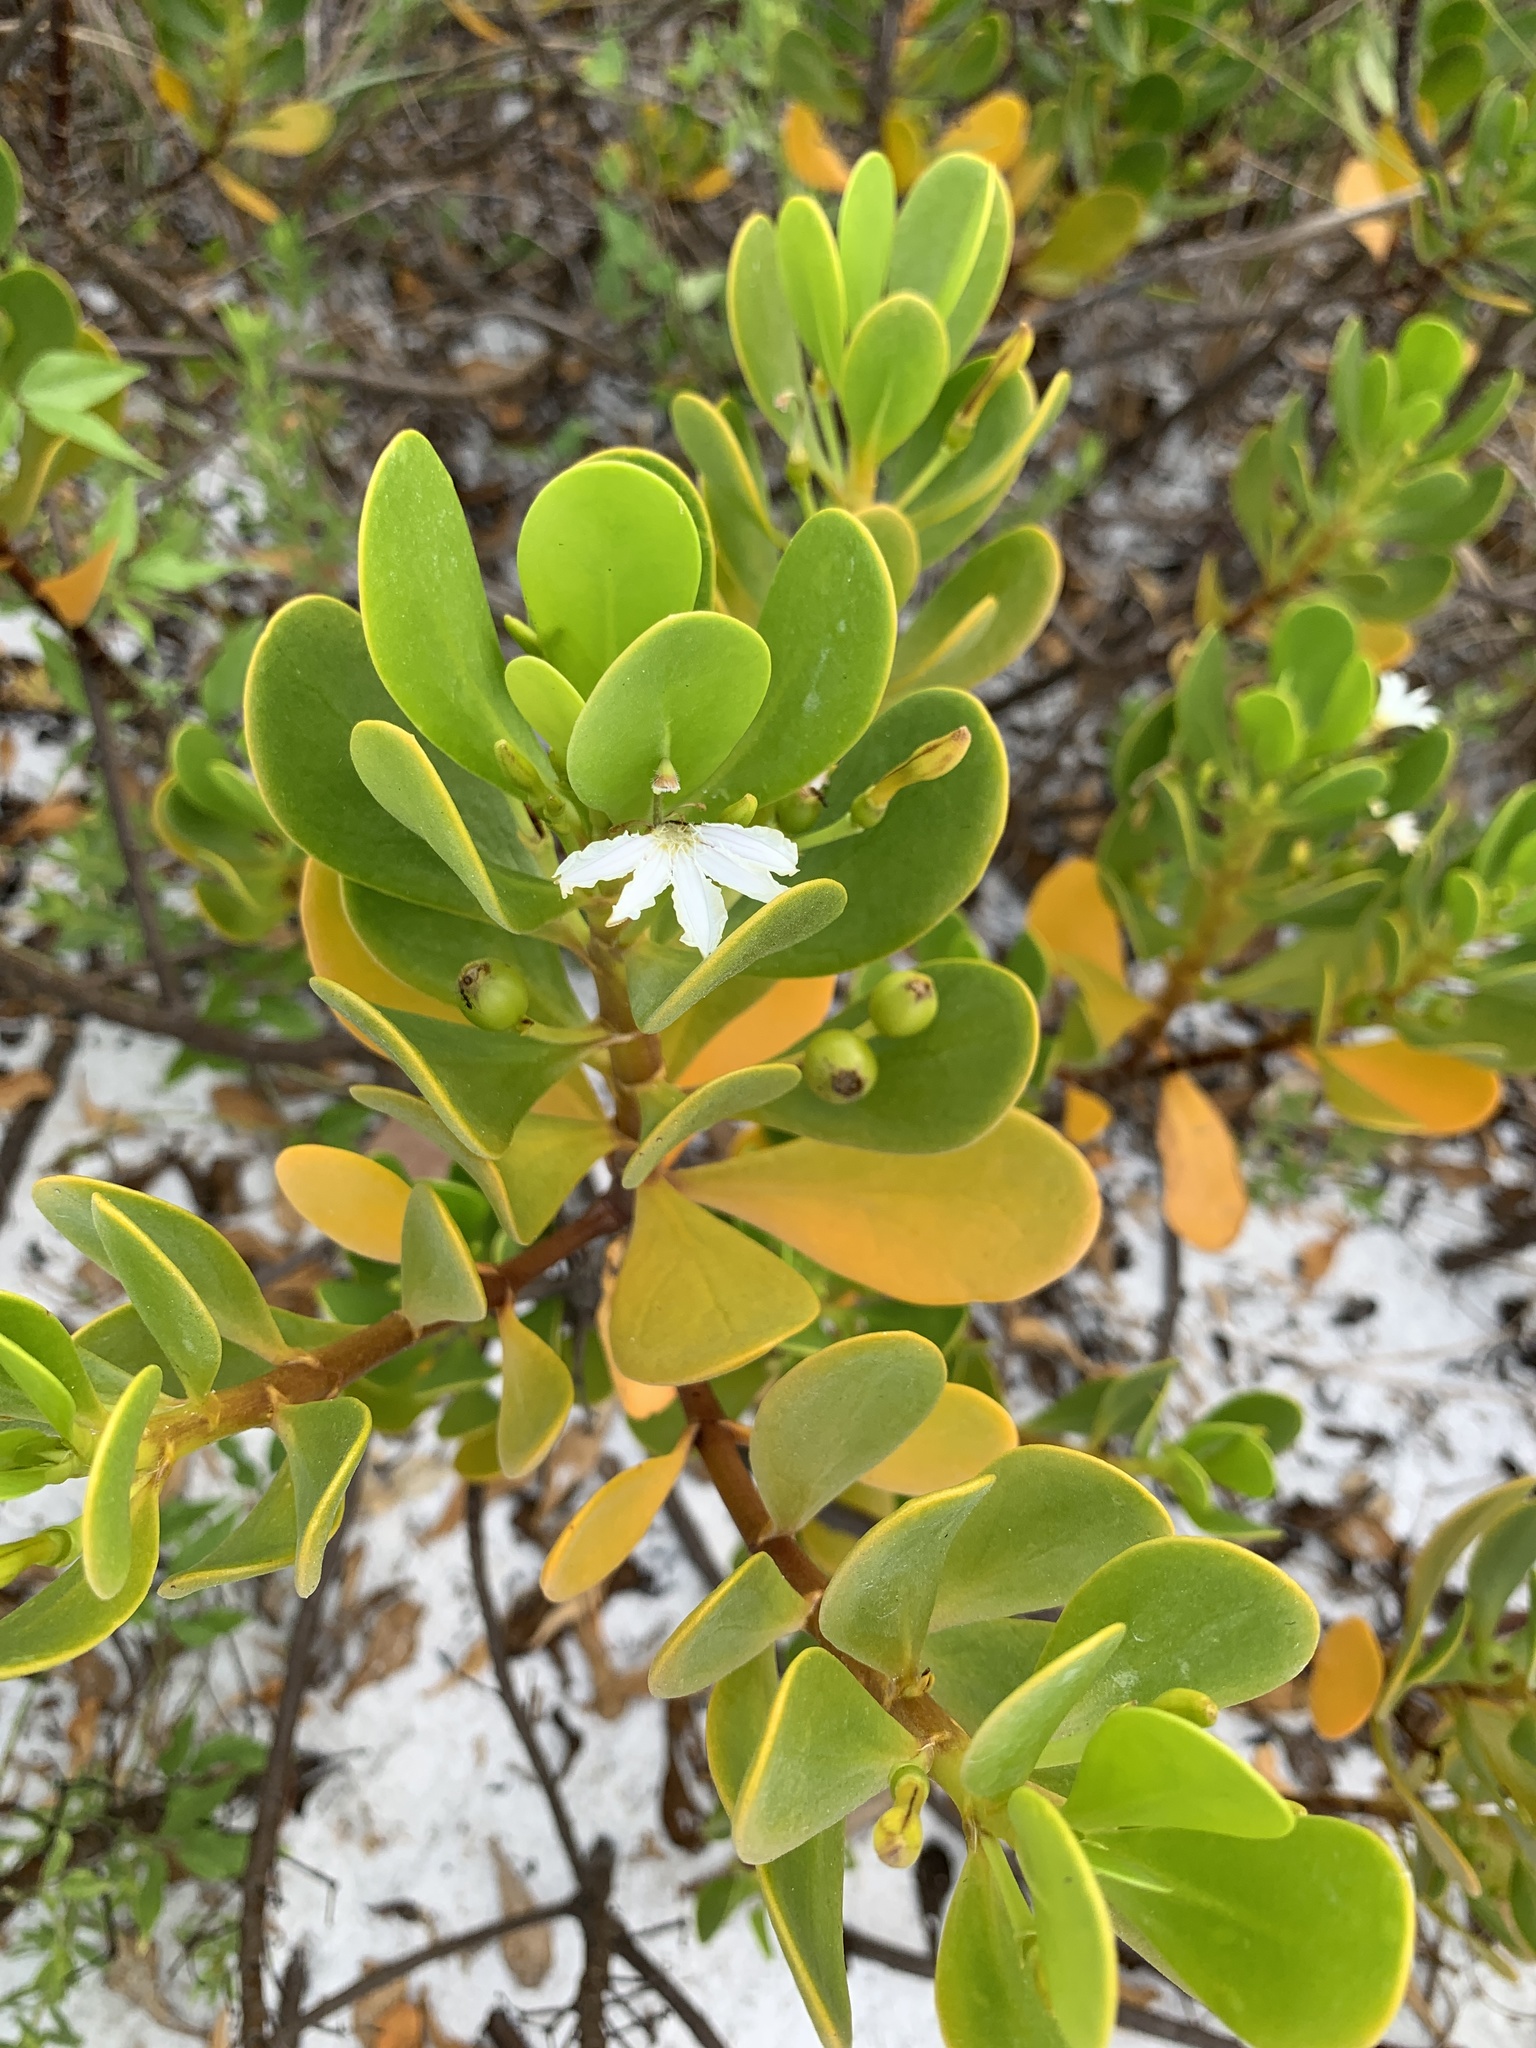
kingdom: Plantae
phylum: Tracheophyta
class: Magnoliopsida
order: Asterales
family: Goodeniaceae
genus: Scaevola
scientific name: Scaevola plumieri
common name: Gull feed
